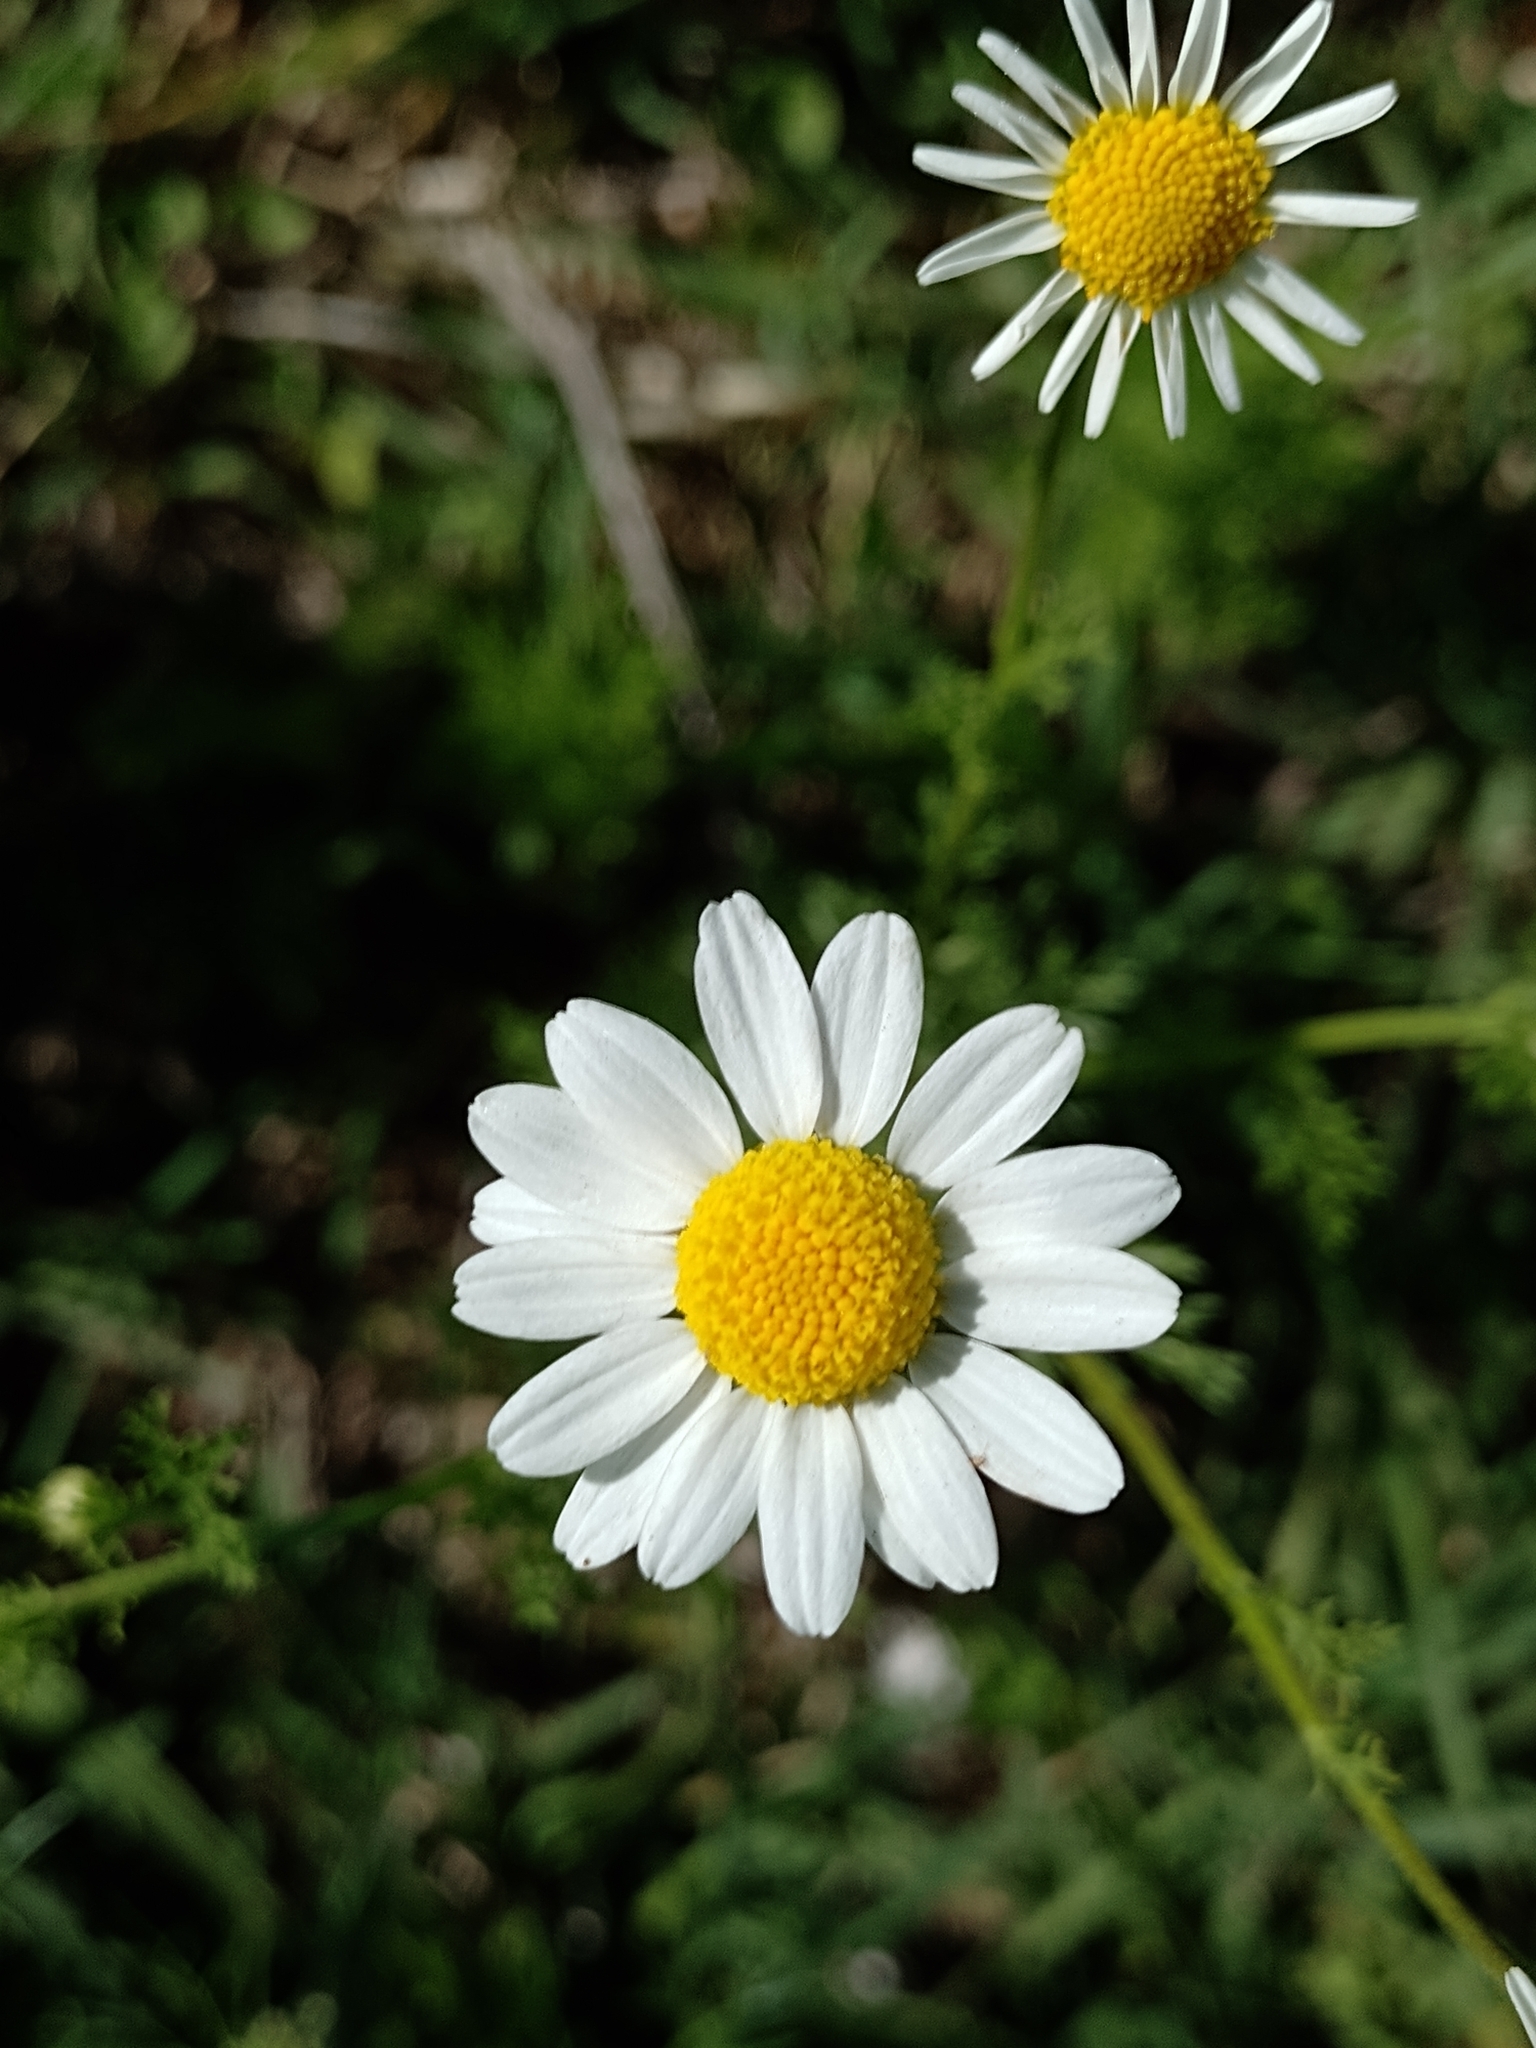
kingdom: Plantae
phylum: Tracheophyta
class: Magnoliopsida
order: Asterales
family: Asteraceae
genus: Matricaria
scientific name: Matricaria chamomilla
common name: Scented mayweed
